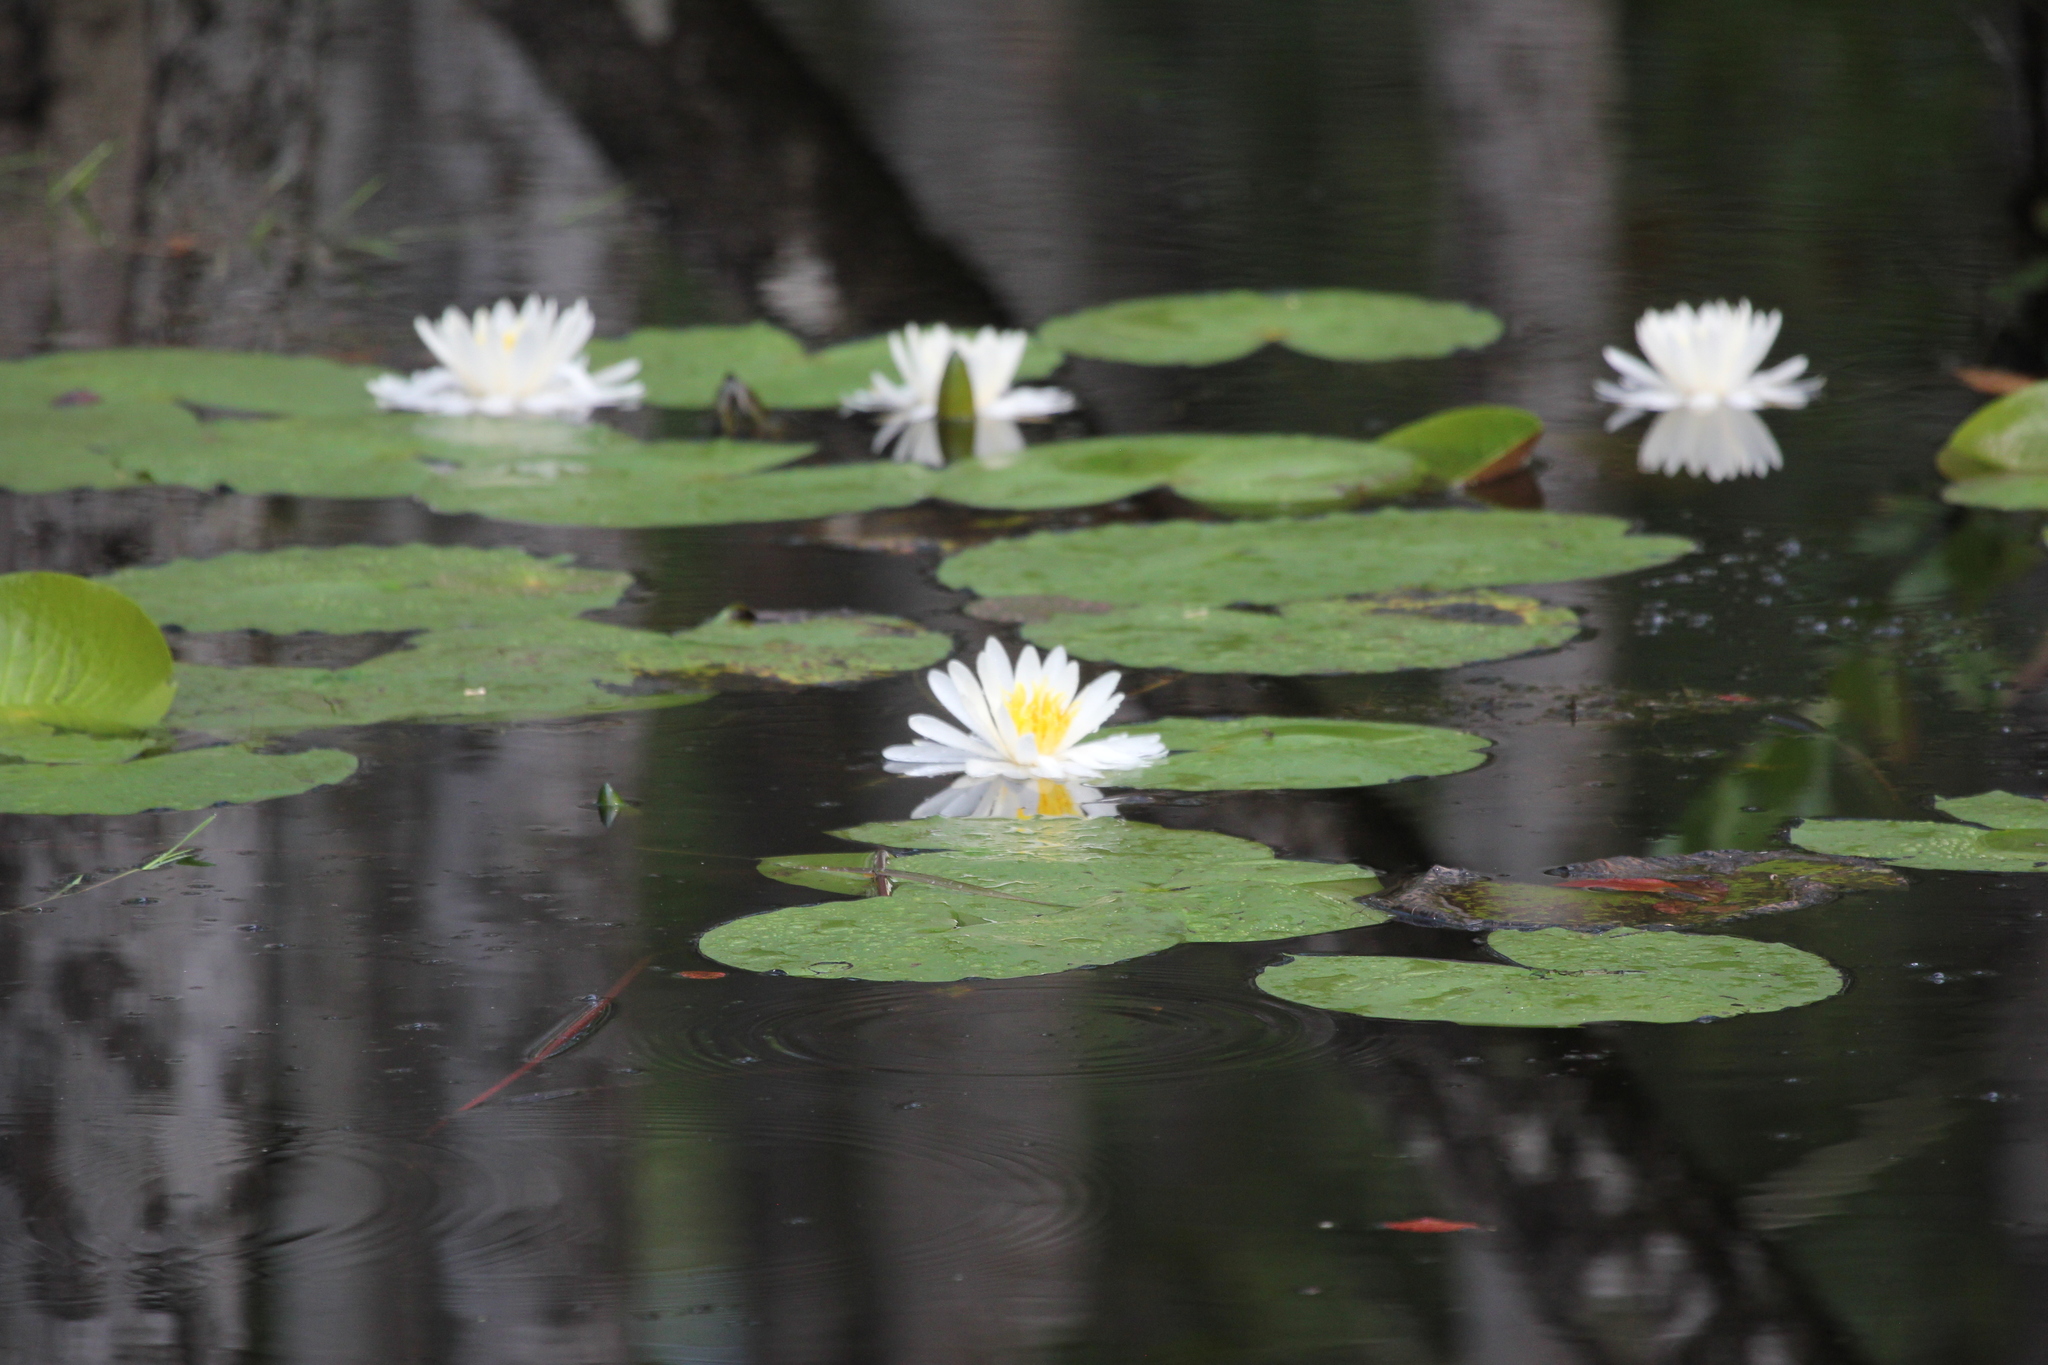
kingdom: Plantae
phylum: Tracheophyta
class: Magnoliopsida
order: Nymphaeales
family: Nymphaeaceae
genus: Nymphaea
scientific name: Nymphaea odorata
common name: Fragrant water-lily
